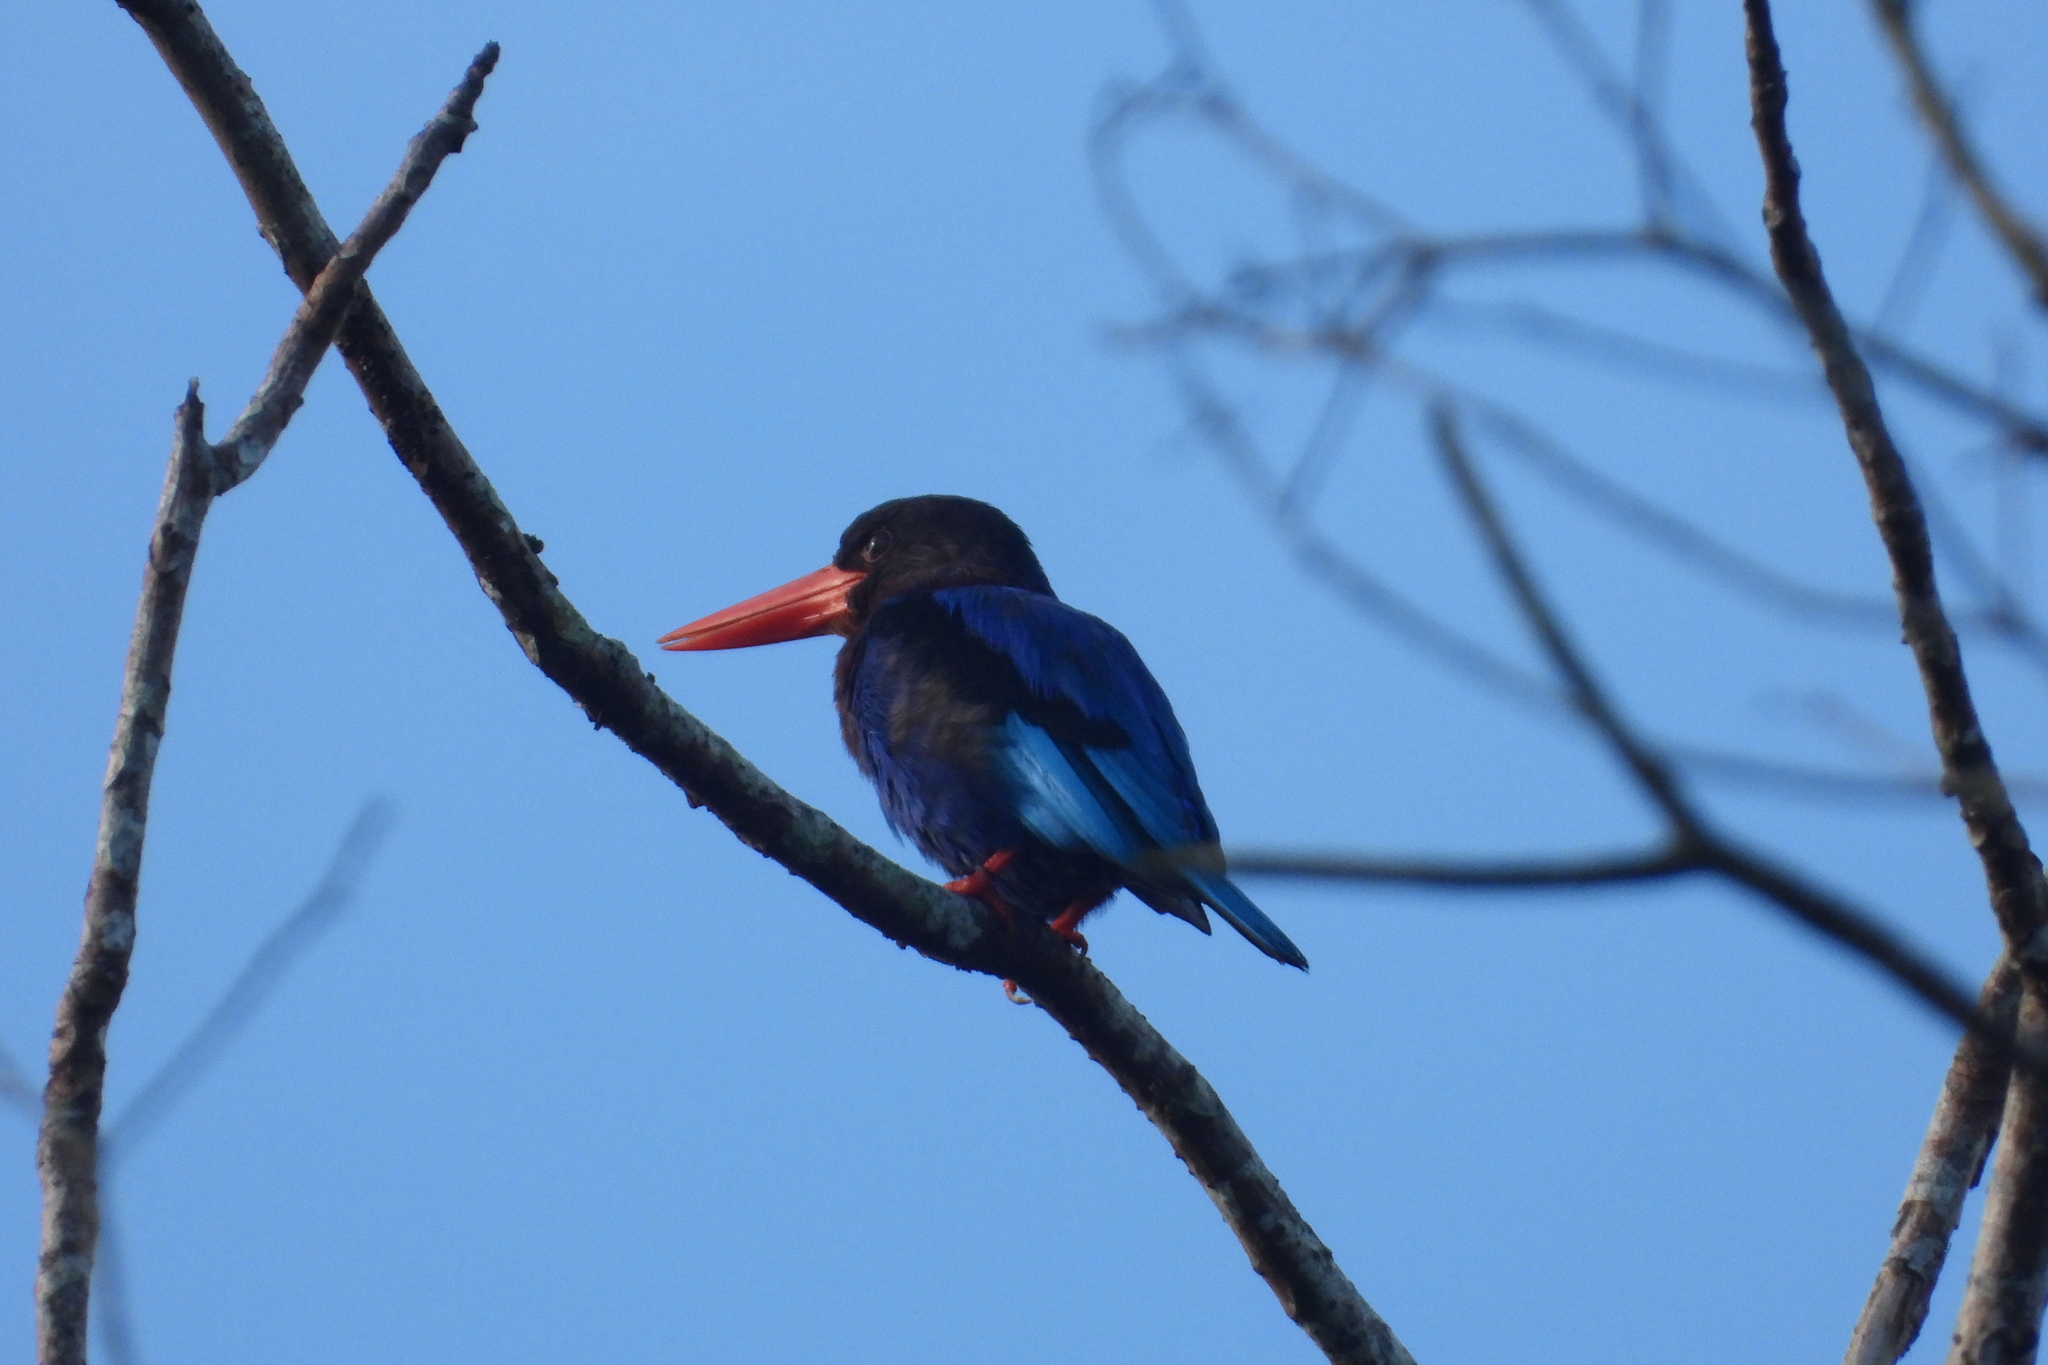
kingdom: Animalia
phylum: Chordata
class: Aves
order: Coraciiformes
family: Alcedinidae
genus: Halcyon
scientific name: Halcyon cyanoventris
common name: Javan kingfisher
